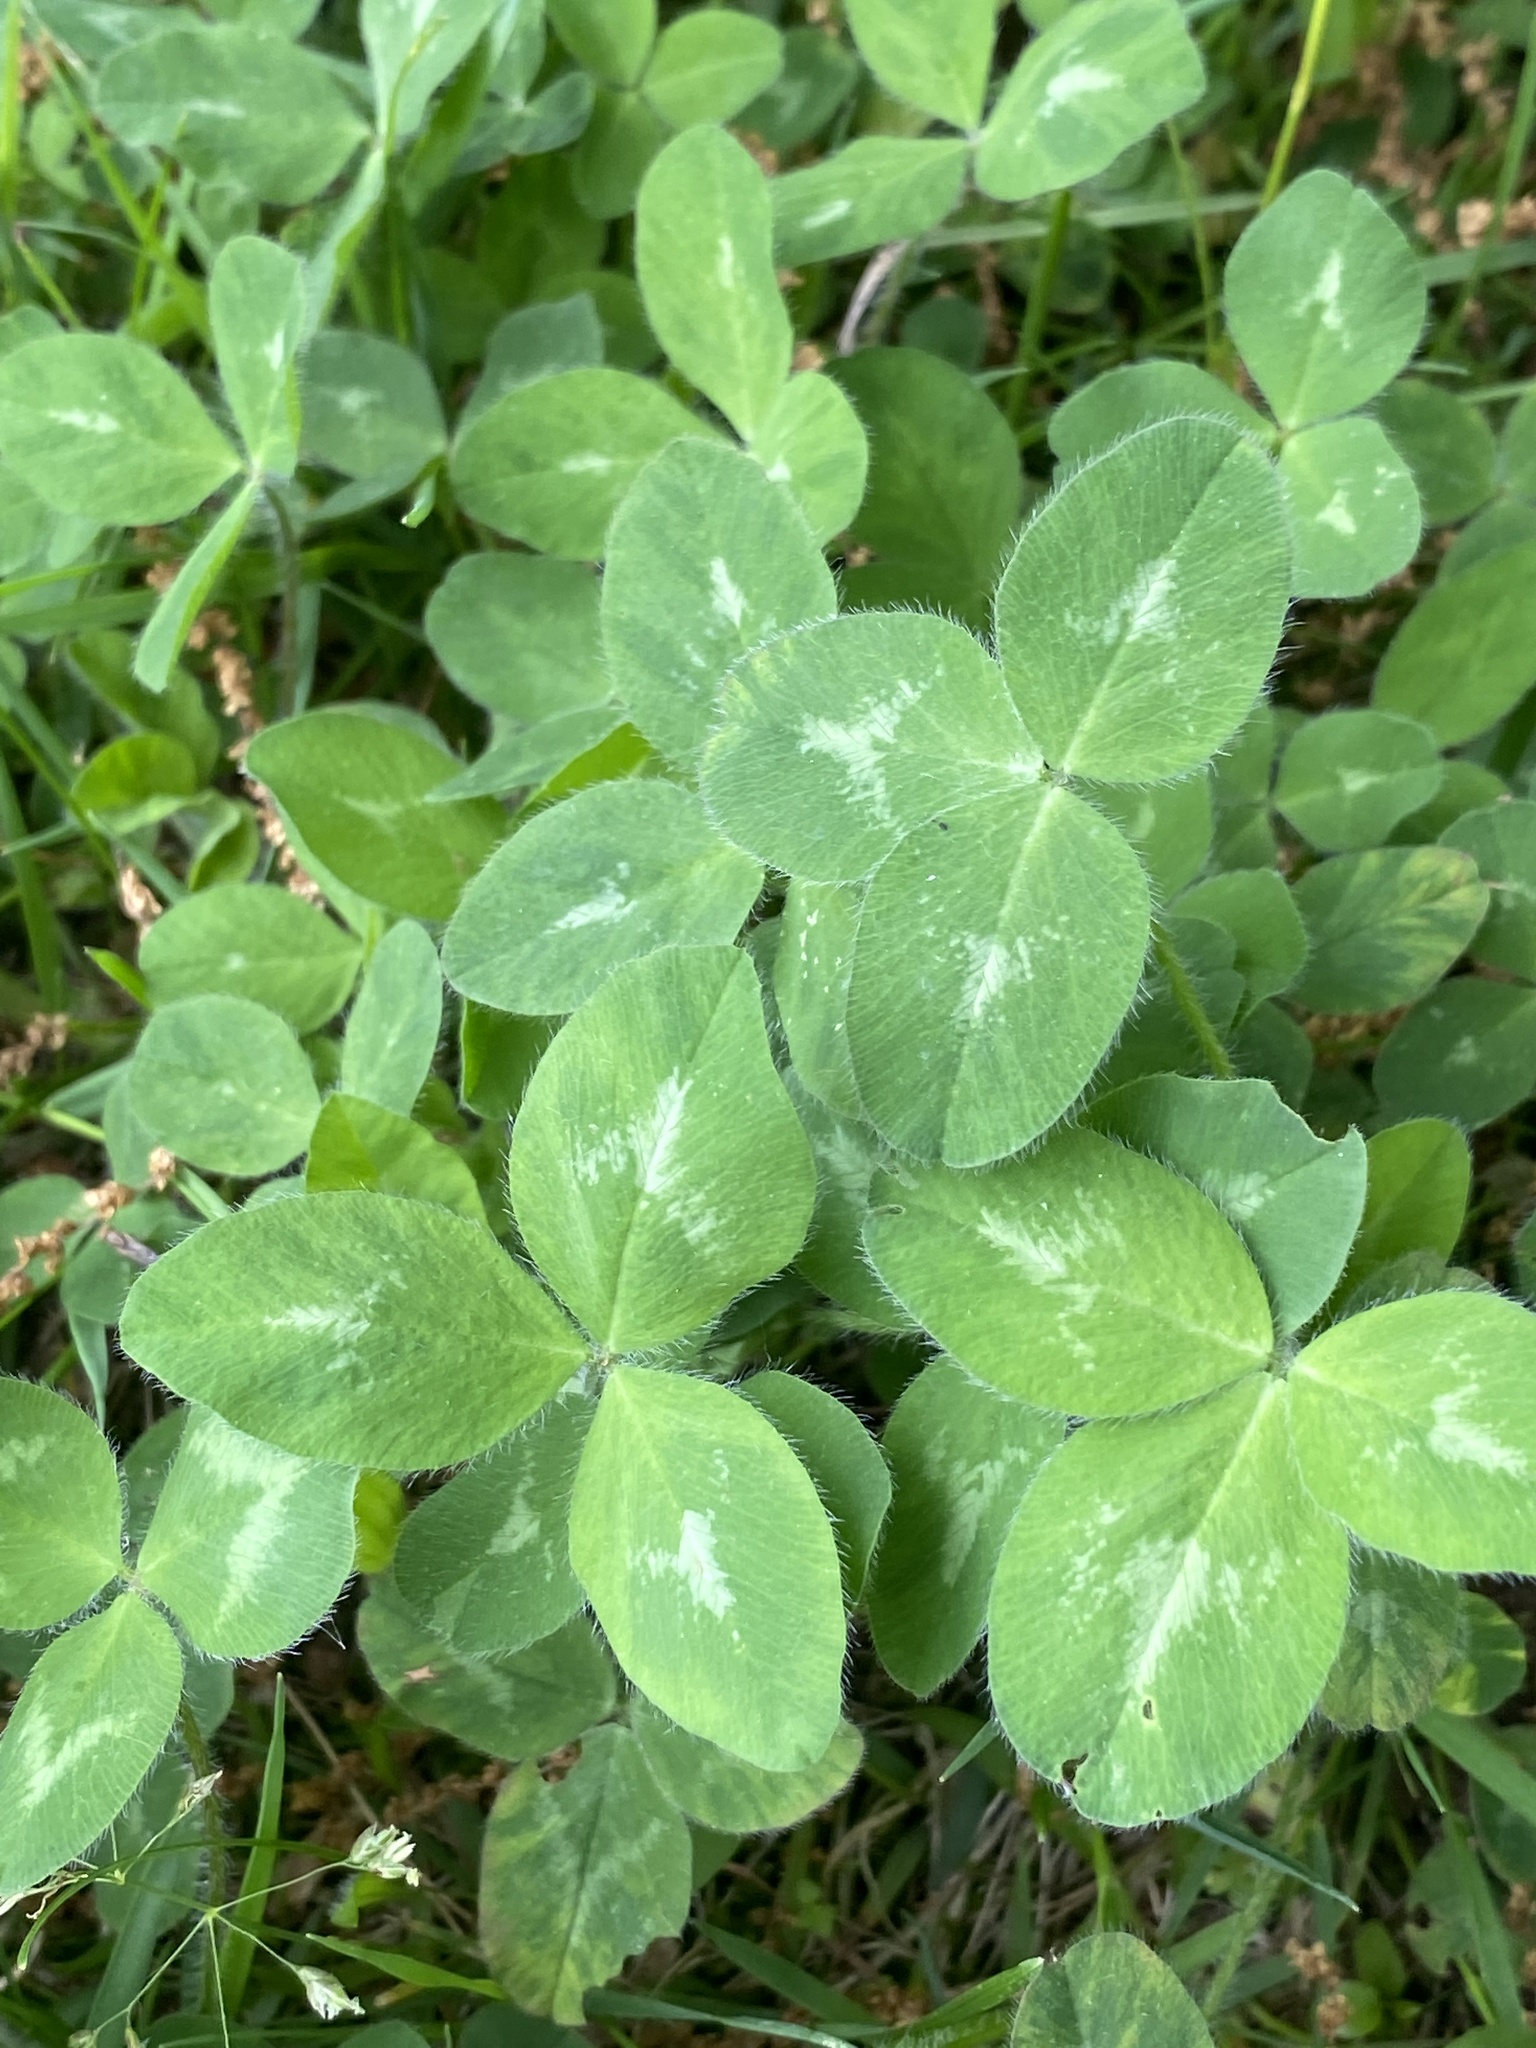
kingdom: Plantae
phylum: Tracheophyta
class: Magnoliopsida
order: Fabales
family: Fabaceae
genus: Trifolium
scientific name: Trifolium pratense
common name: Red clover
